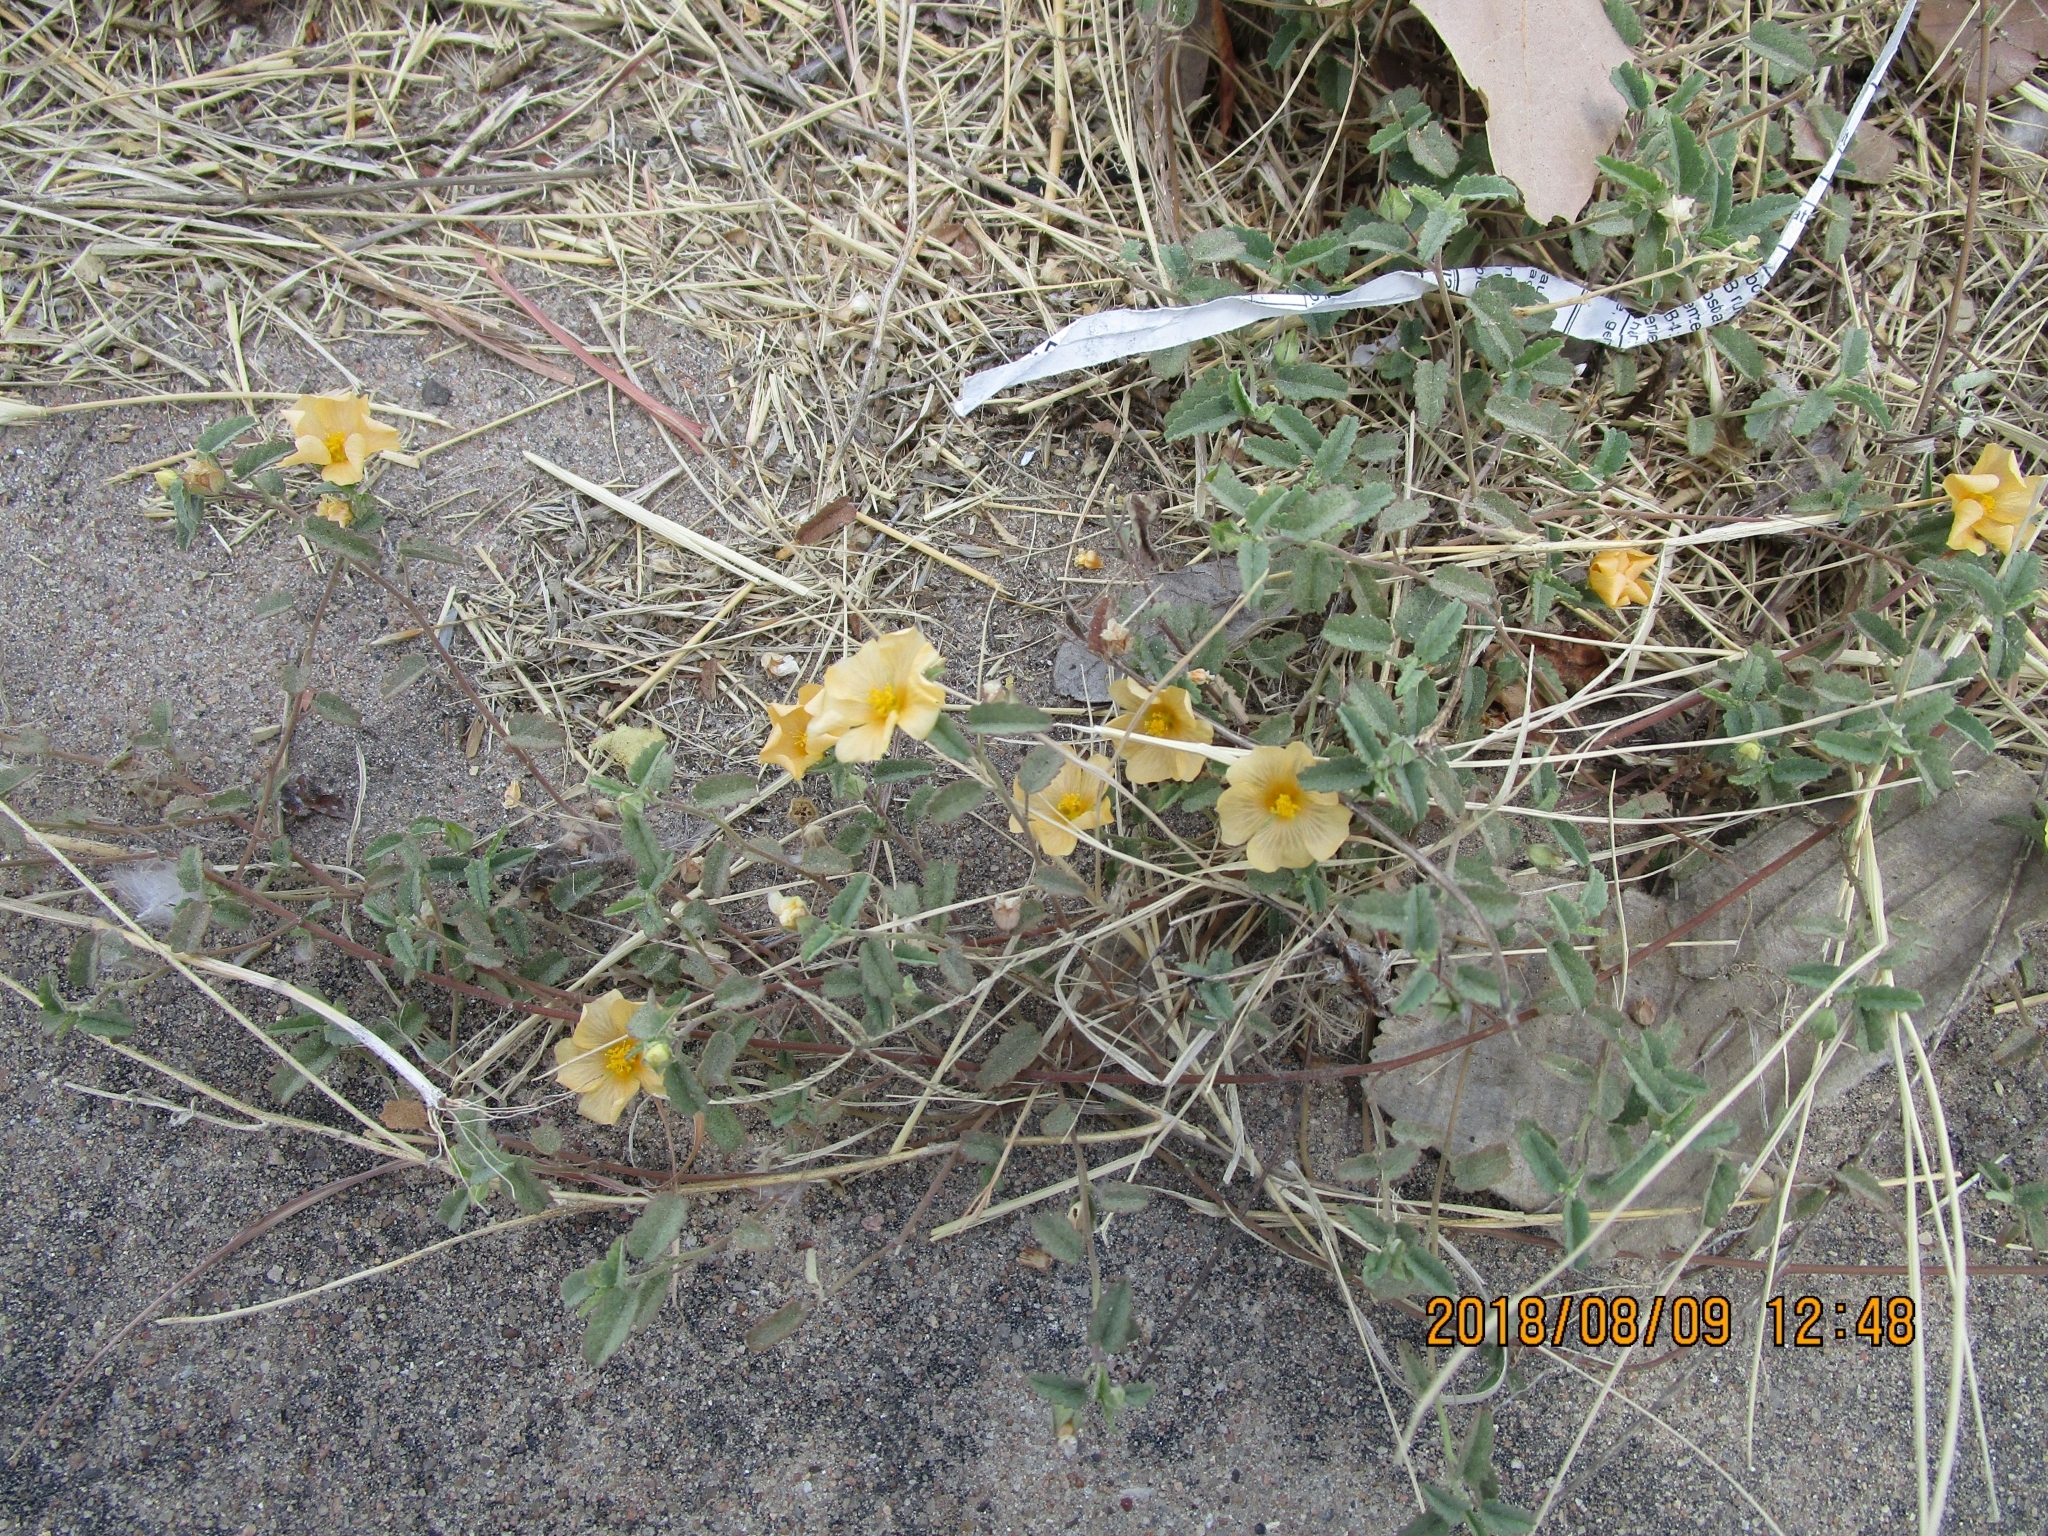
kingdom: Plantae
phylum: Tracheophyta
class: Magnoliopsida
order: Malvales
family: Malvaceae
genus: Sida
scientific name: Sida abutilifolia
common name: Spreading fanpetals
